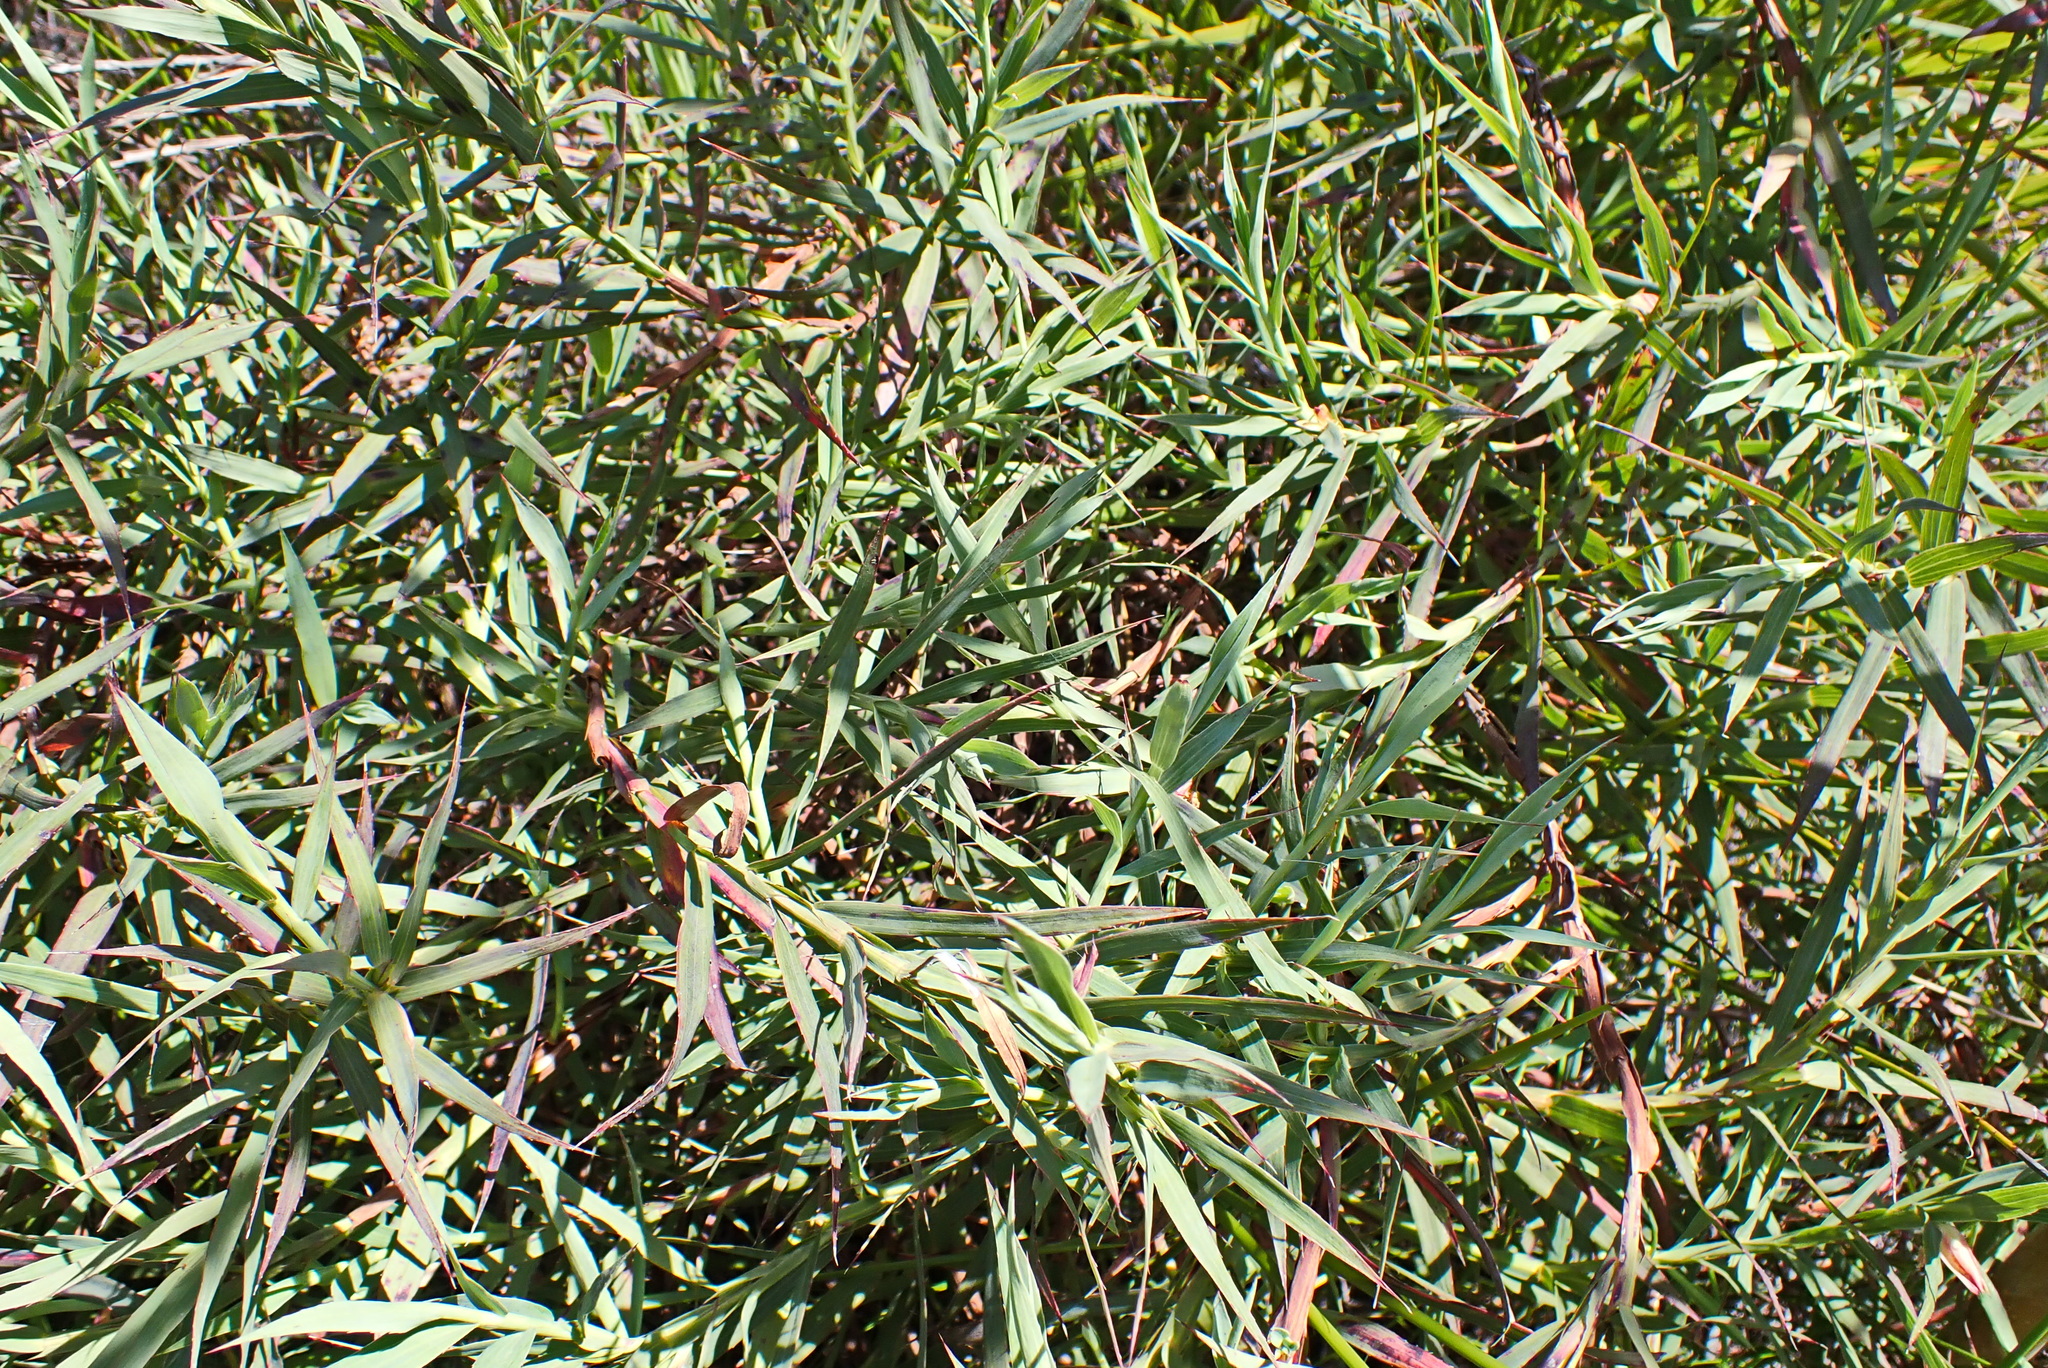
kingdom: Plantae
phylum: Tracheophyta
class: Magnoliopsida
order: Rosales
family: Rosaceae
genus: Cliffortia
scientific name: Cliffortia graminea
